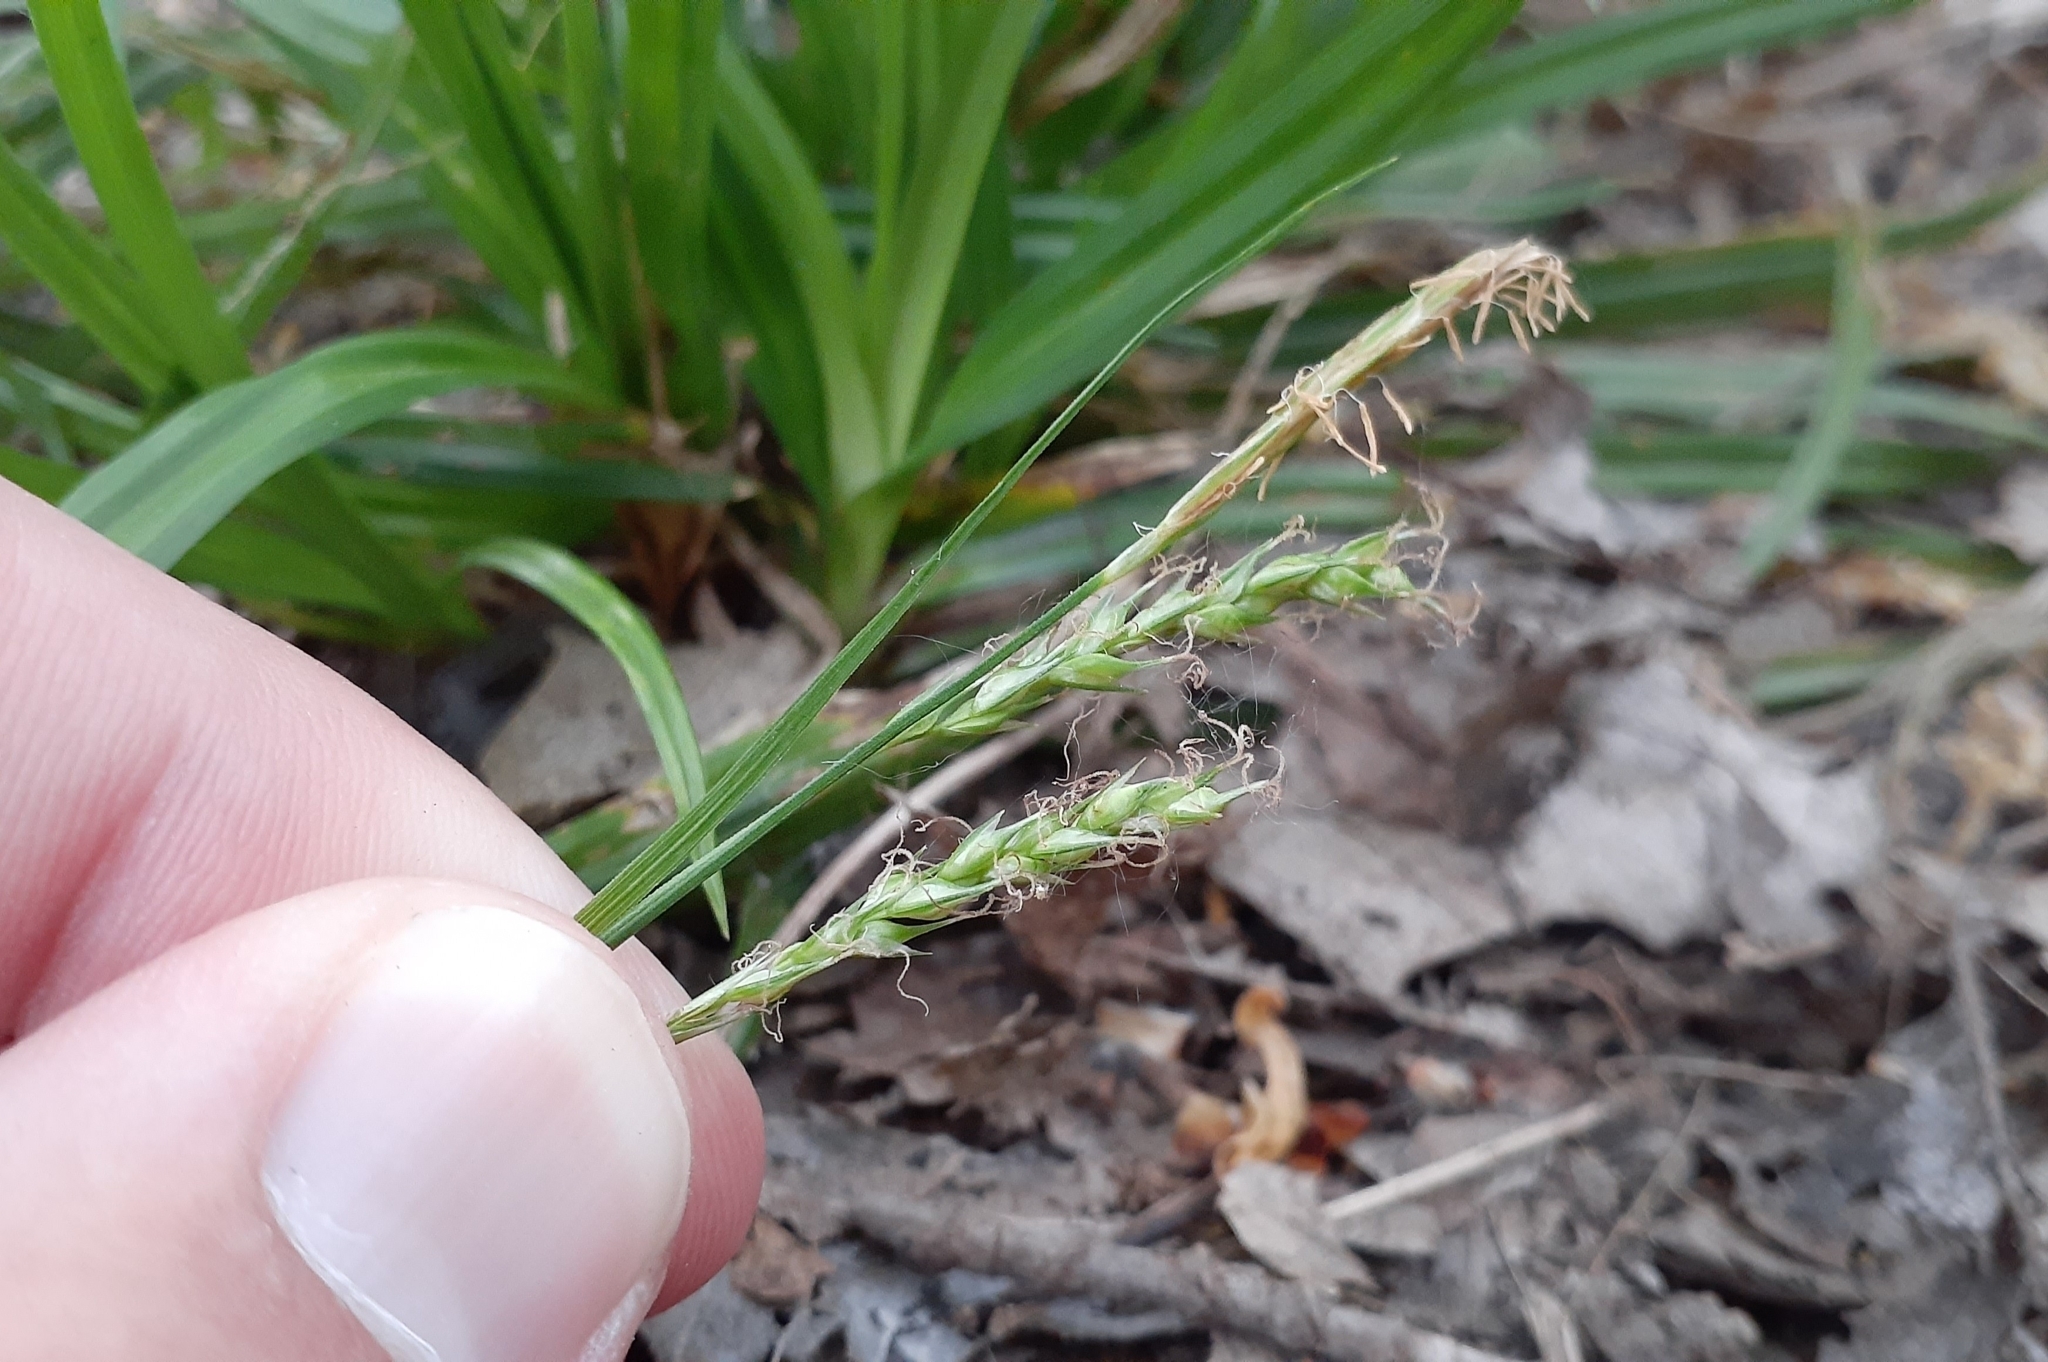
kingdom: Plantae
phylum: Tracheophyta
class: Liliopsida
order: Poales
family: Cyperaceae
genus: Carex
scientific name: Carex sylvatica
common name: Wood-sedge
